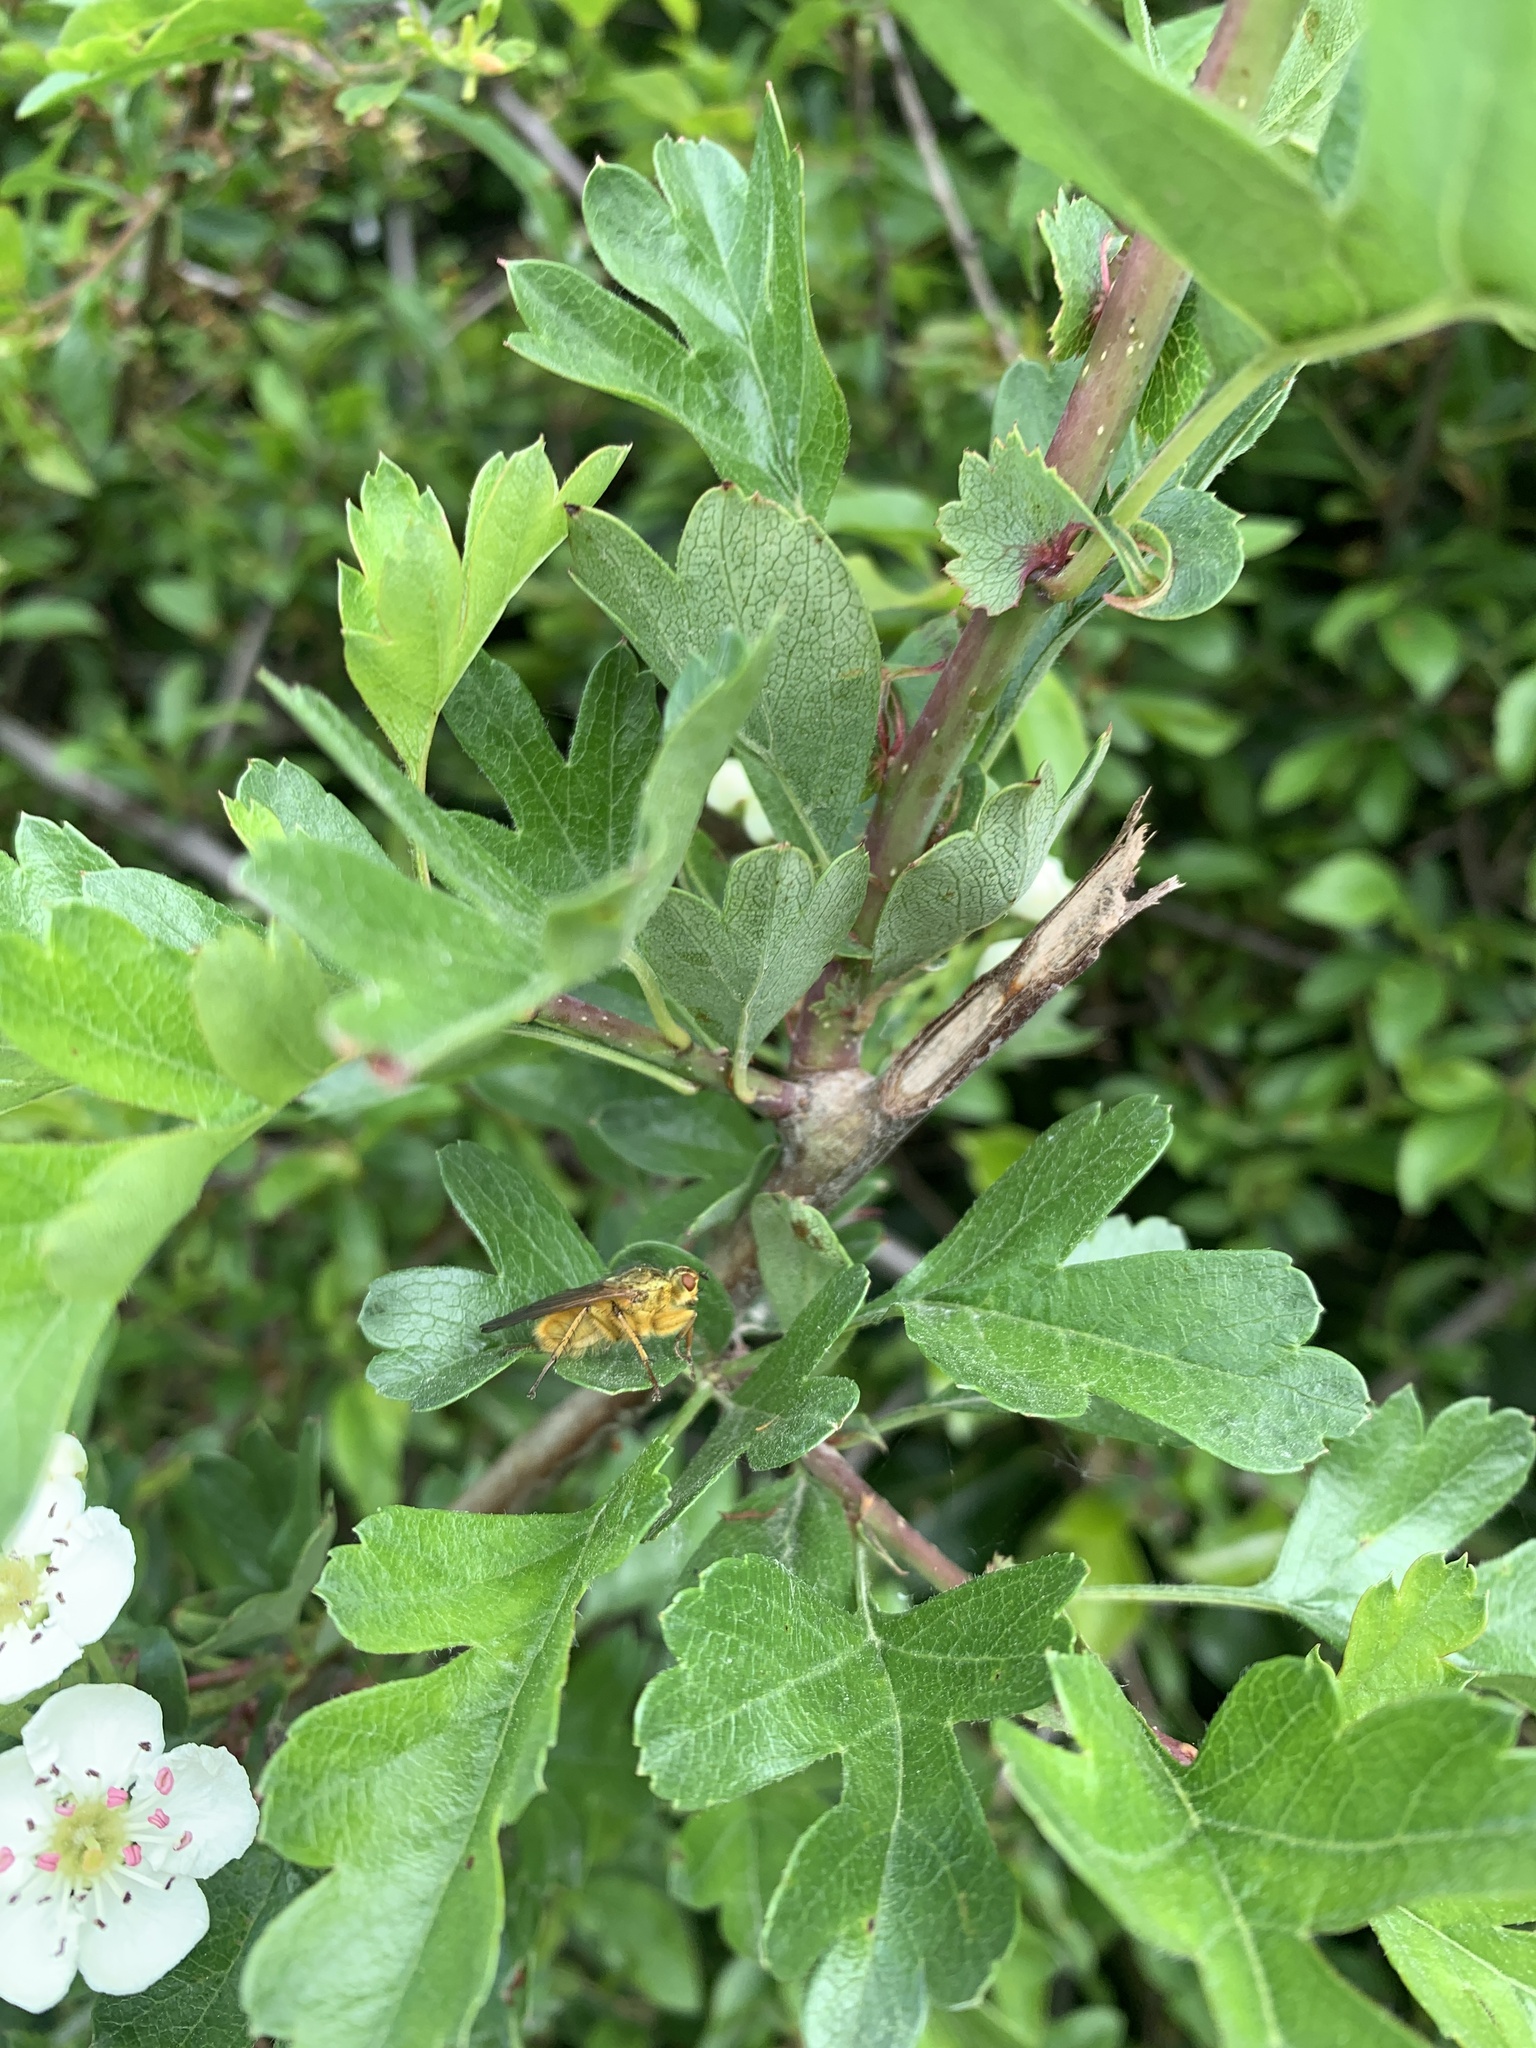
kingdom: Animalia
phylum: Arthropoda
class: Insecta
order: Diptera
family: Scathophagidae
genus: Scathophaga
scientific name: Scathophaga stercoraria
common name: Yellow dung fly
